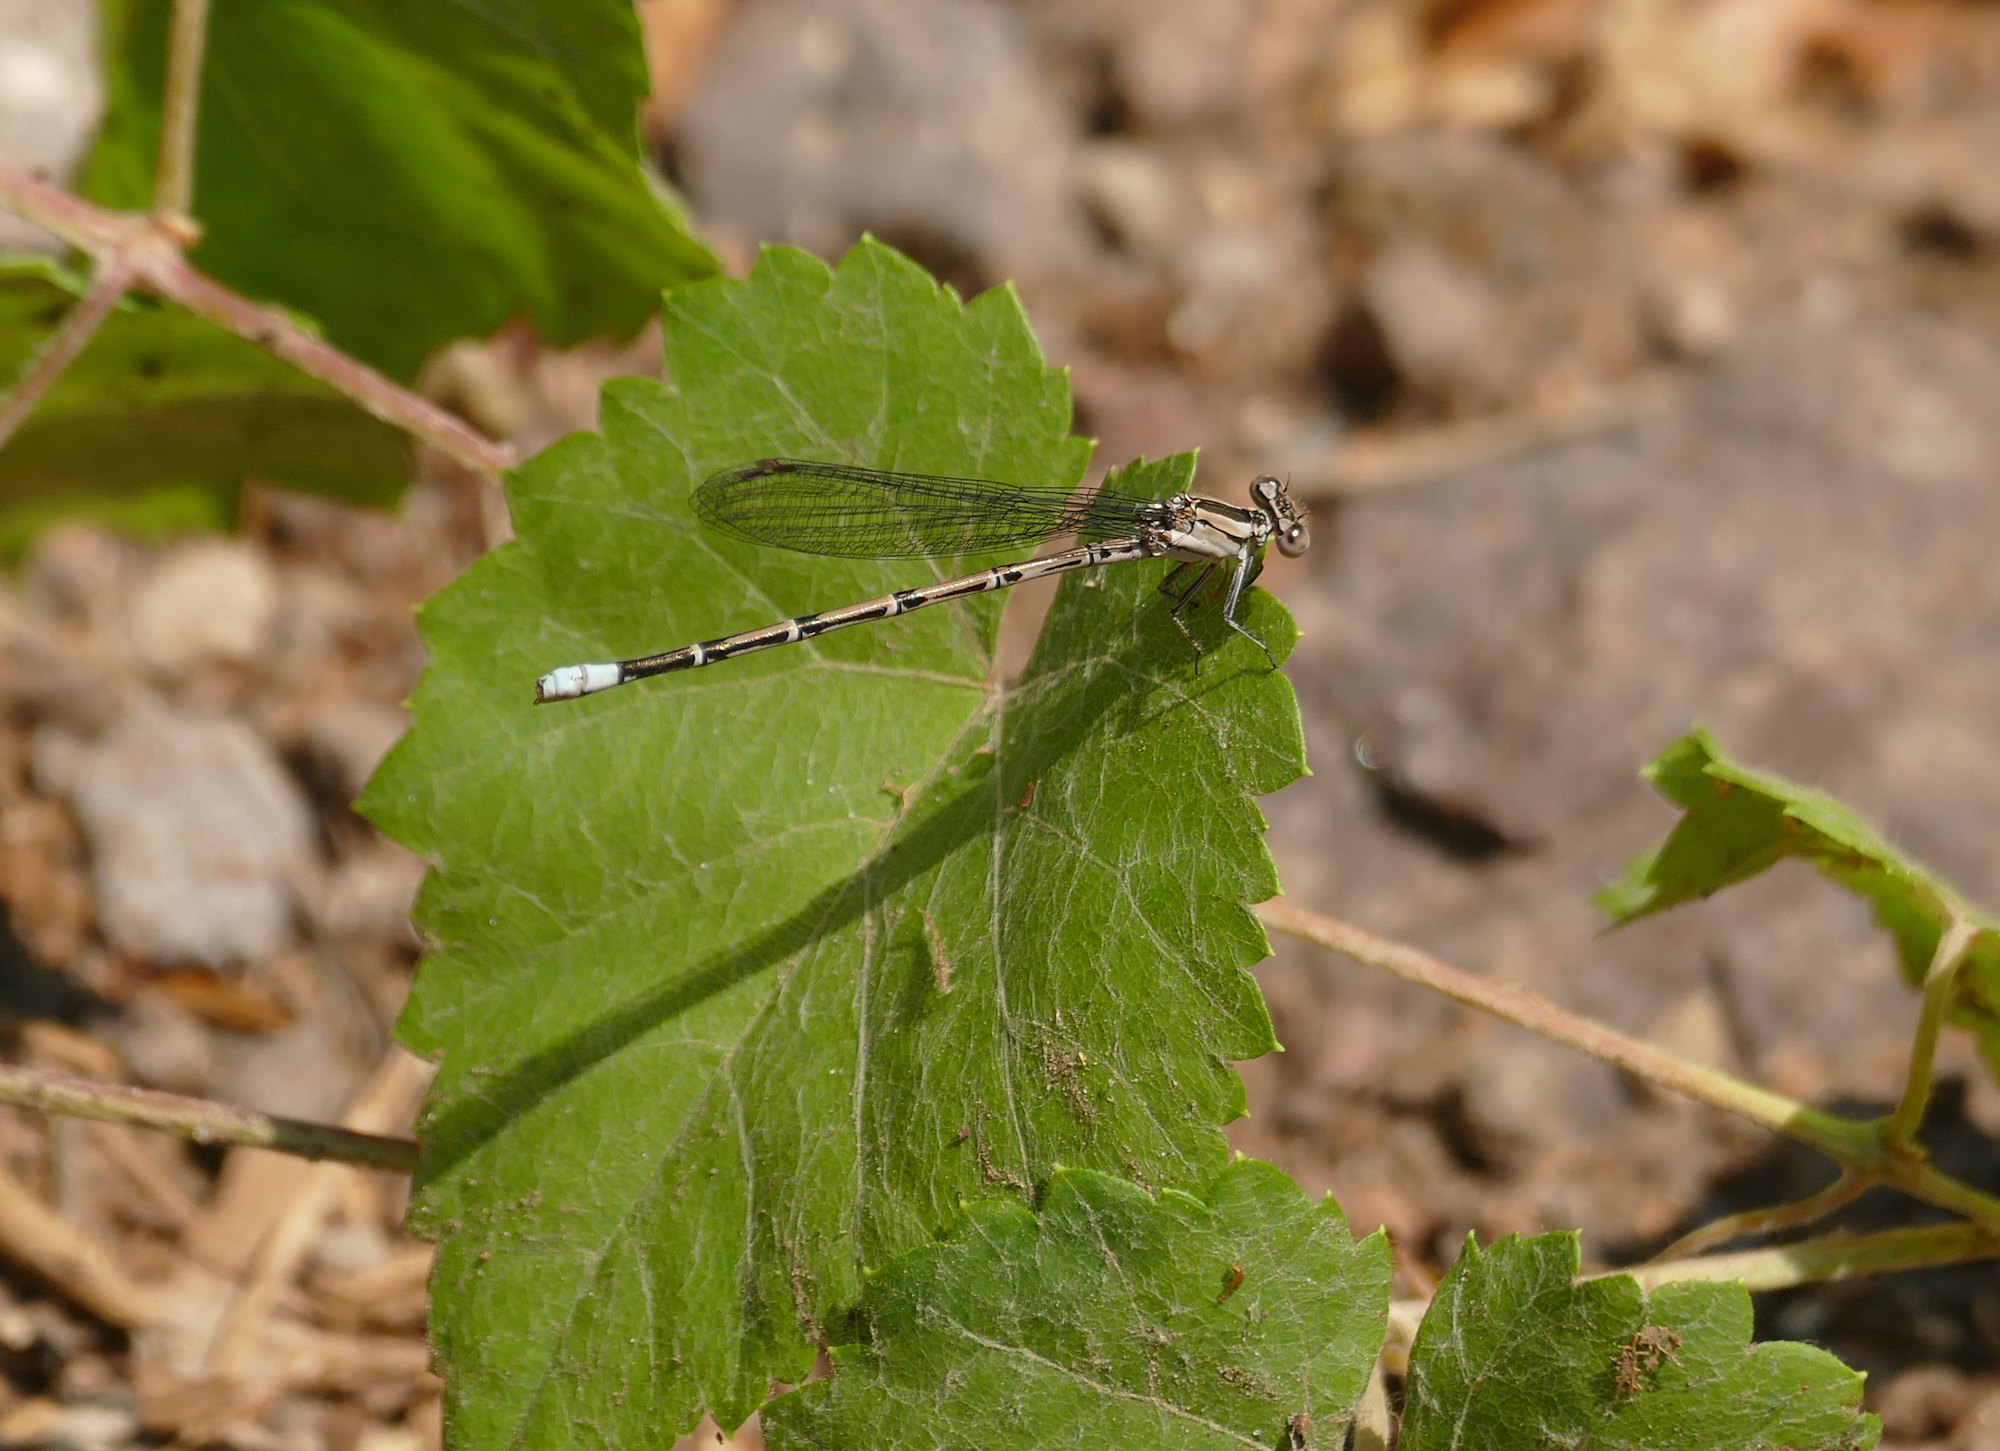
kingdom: Animalia
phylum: Arthropoda
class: Insecta
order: Odonata
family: Coenagrionidae
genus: Argia
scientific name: Argia funebris
